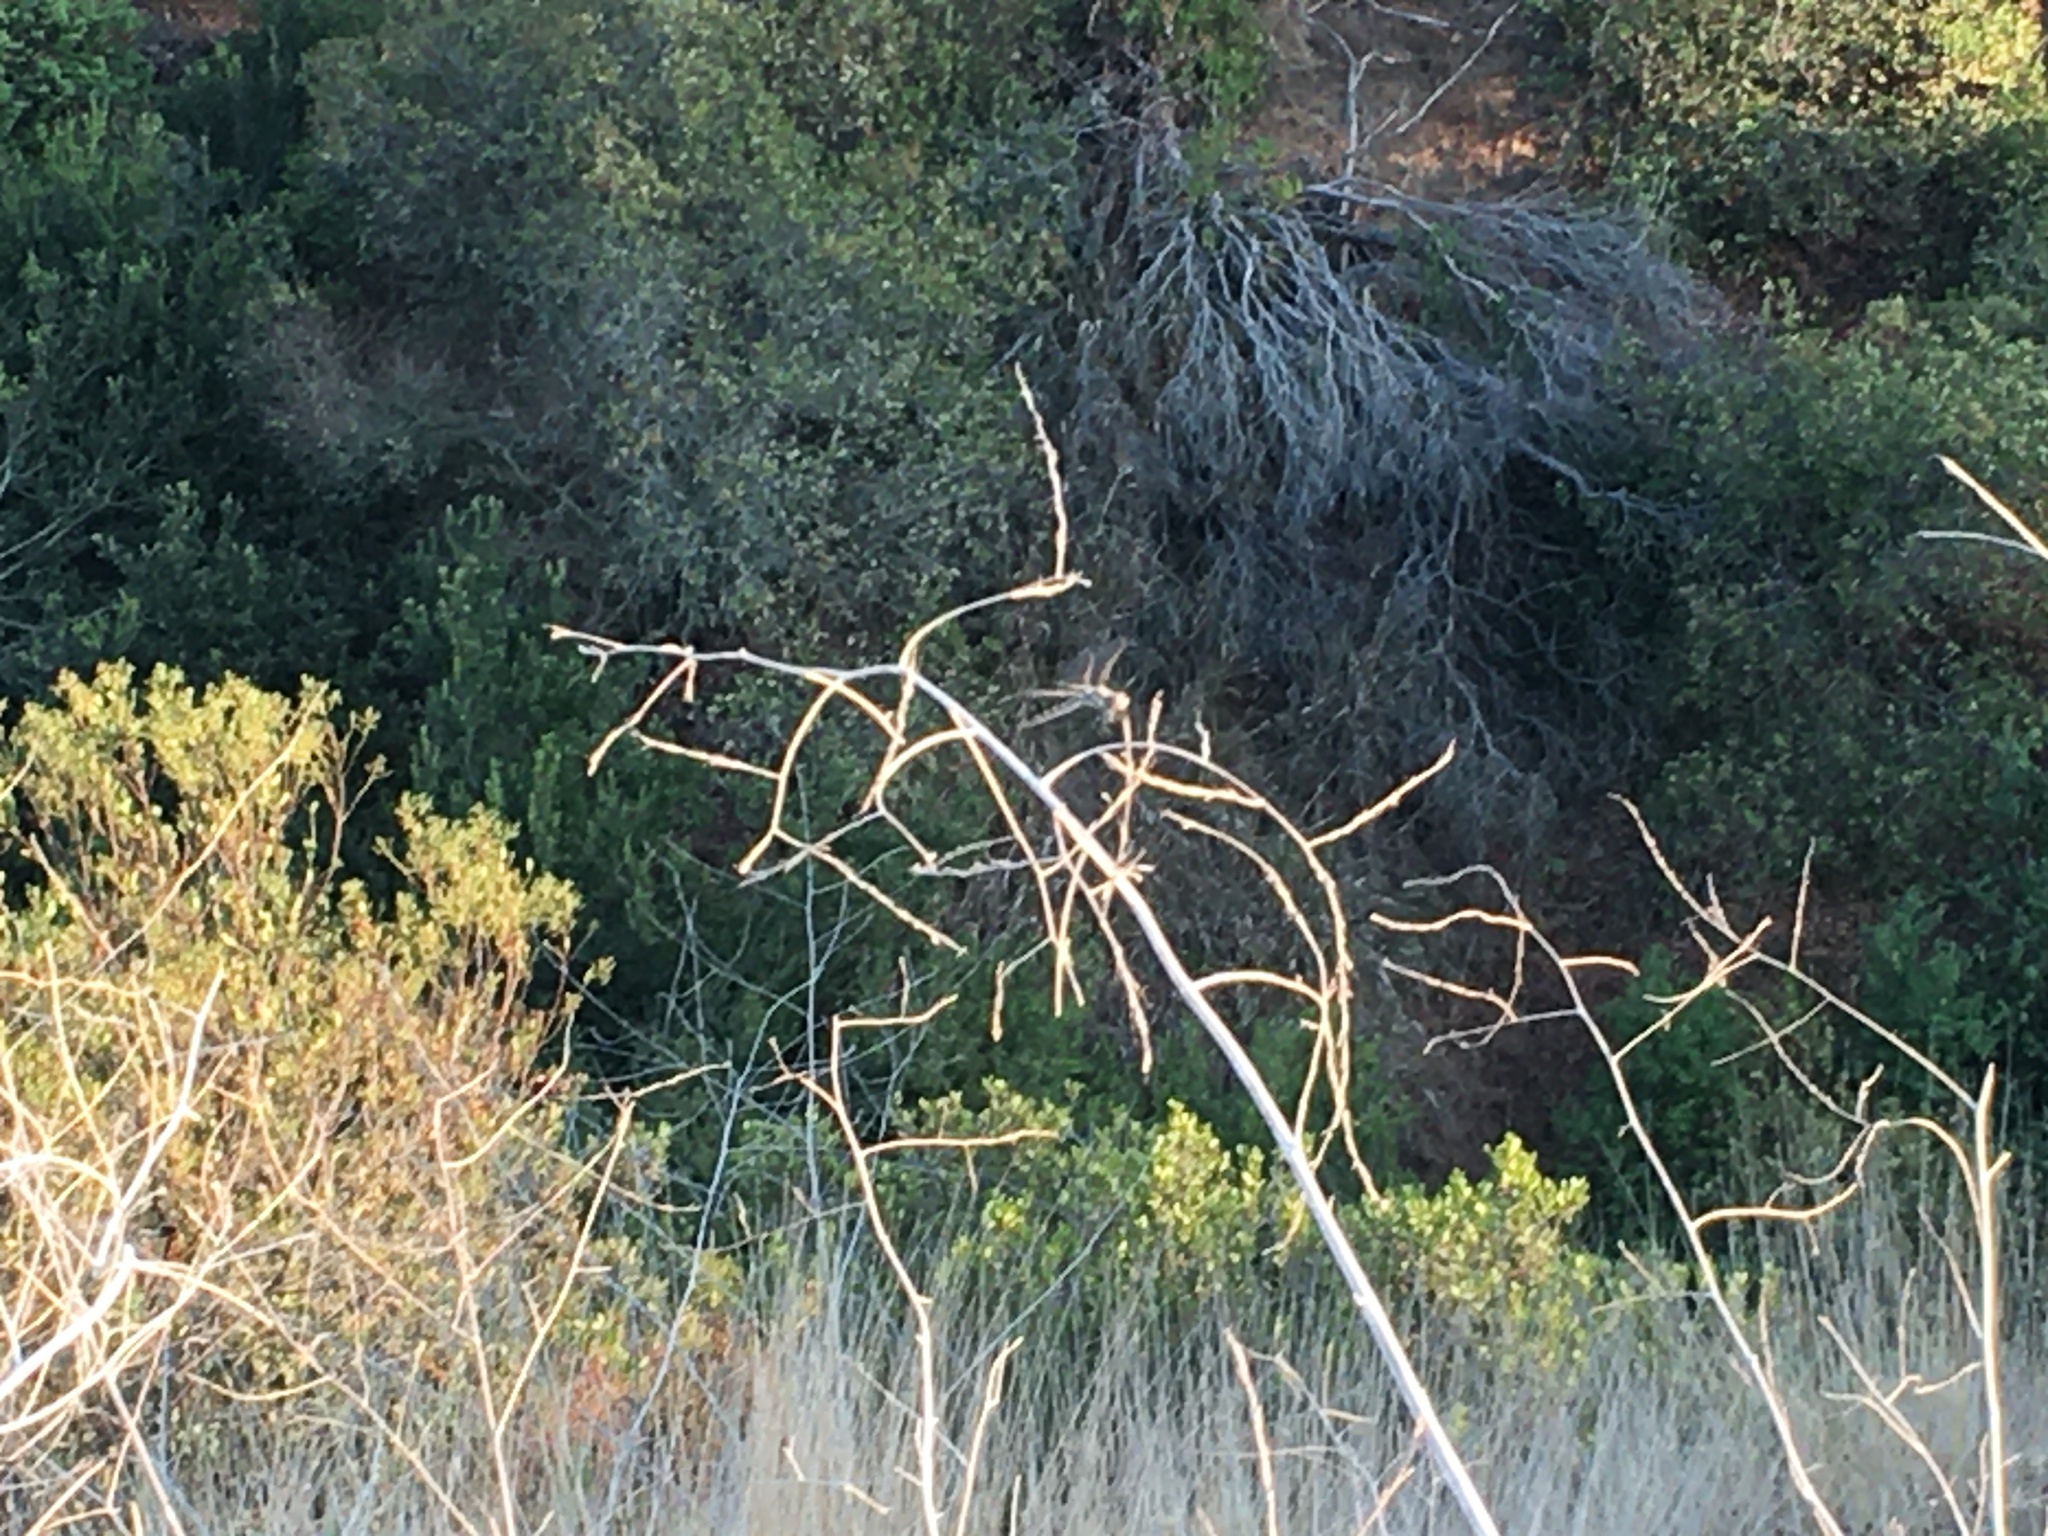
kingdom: Animalia
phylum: Arthropoda
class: Insecta
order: Odonata
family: Libellulidae
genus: Sympetrum
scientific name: Sympetrum corruptum
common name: Variegated meadowhawk
